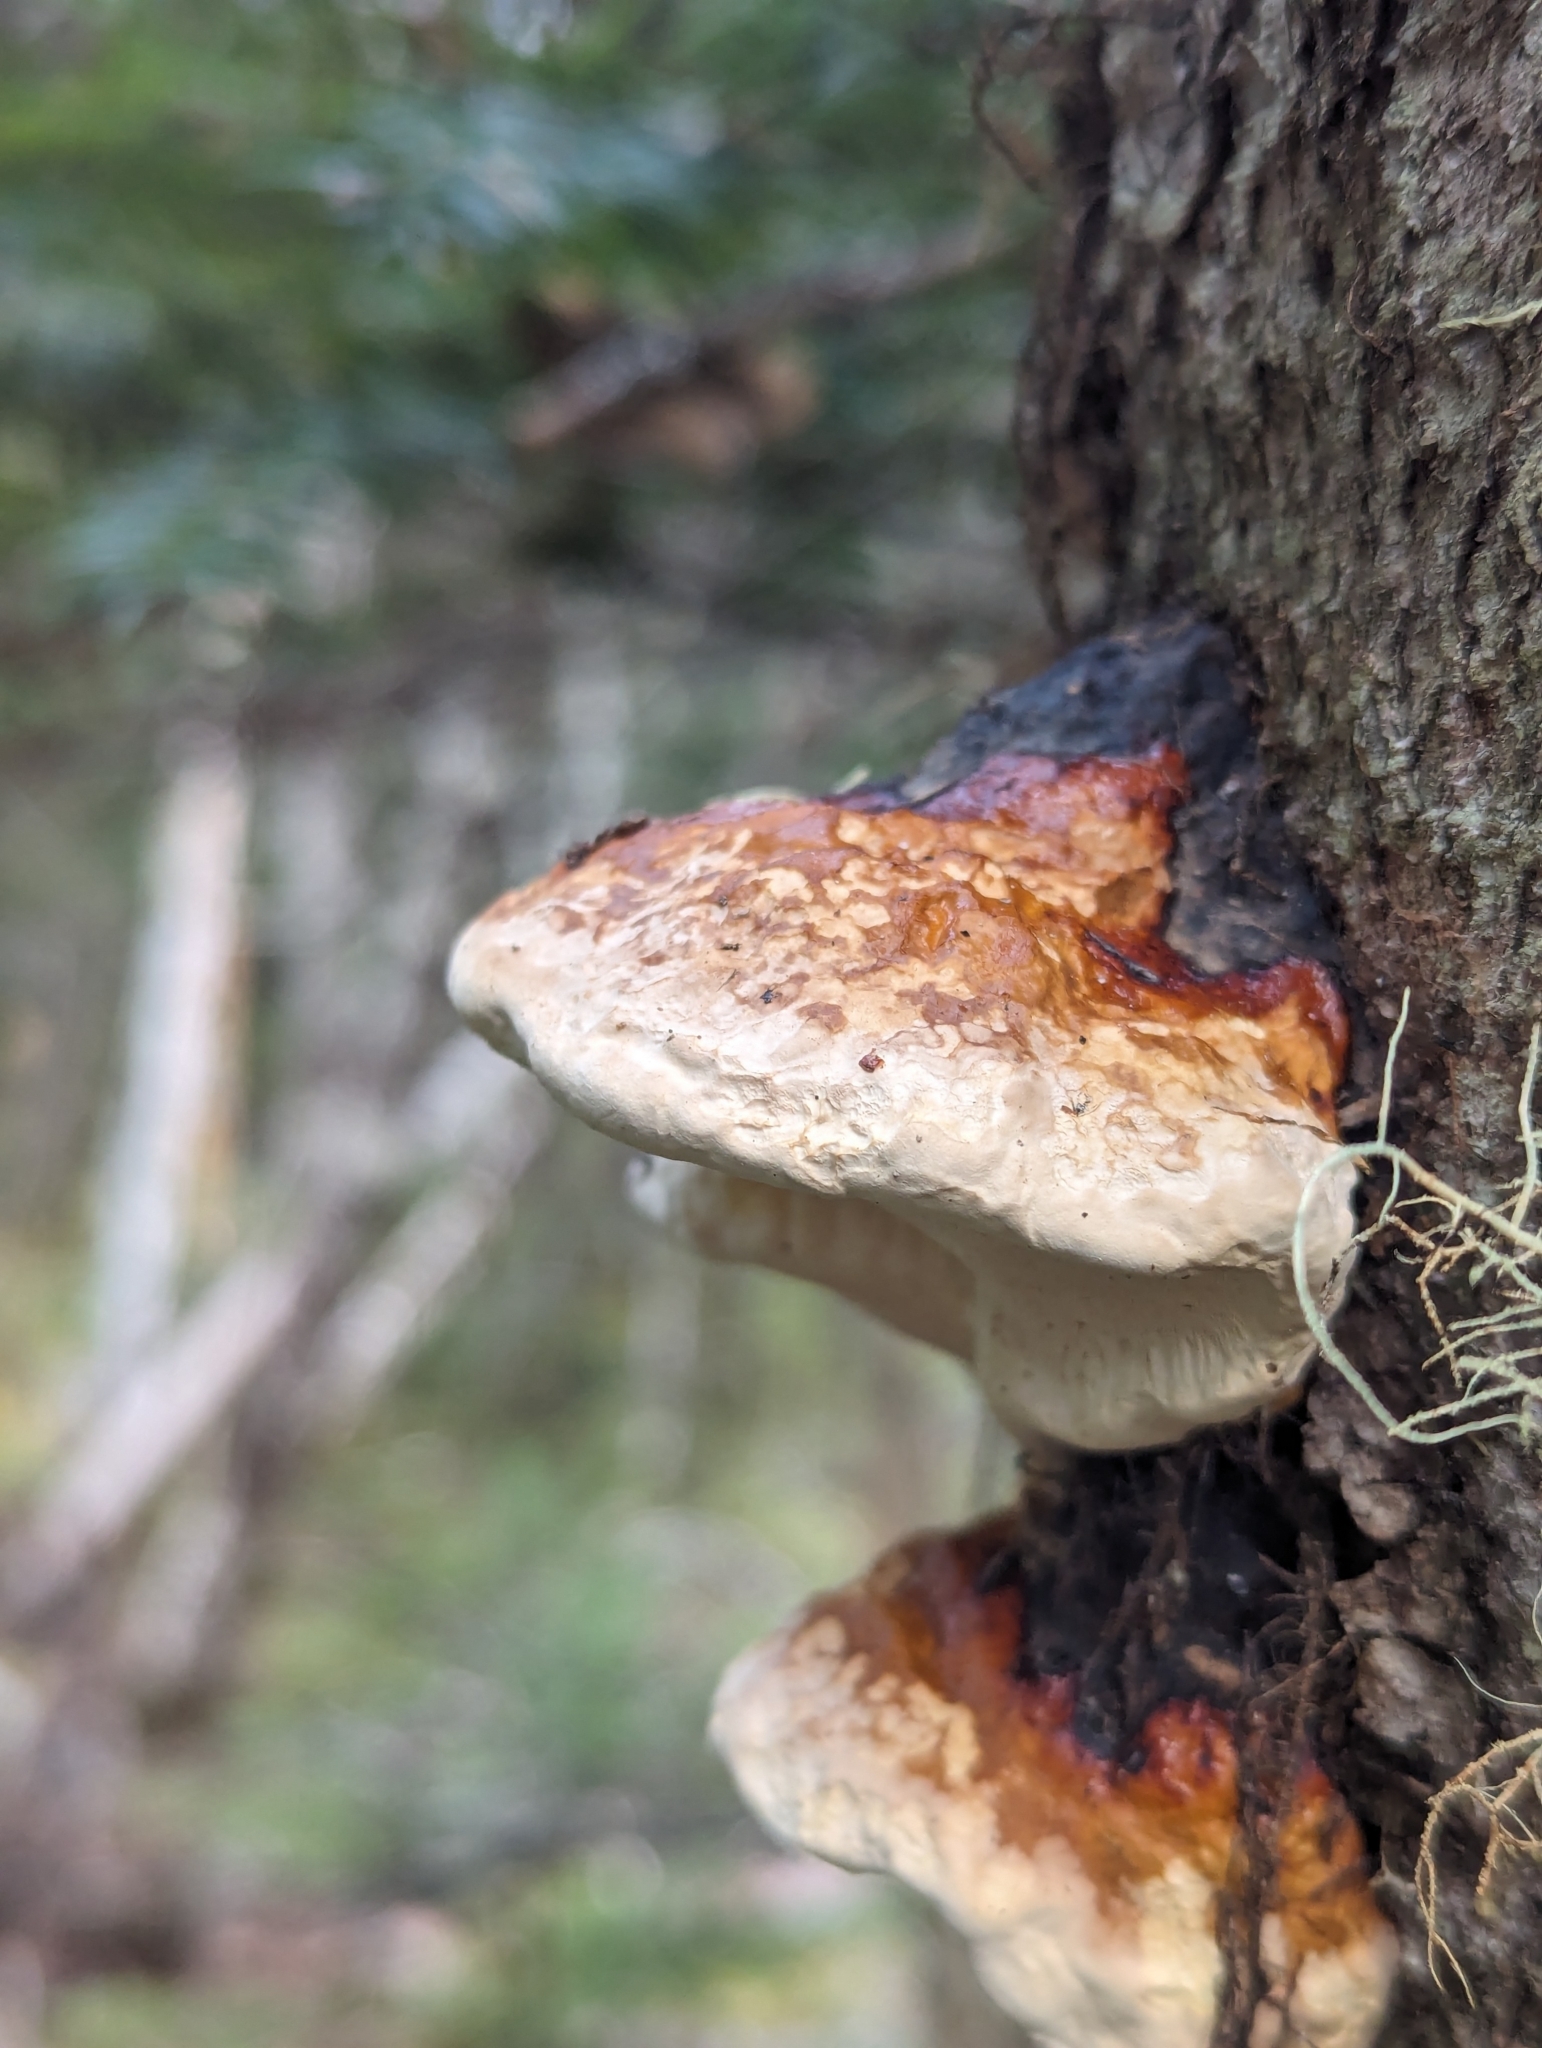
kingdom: Fungi
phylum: Basidiomycota
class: Agaricomycetes
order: Polyporales
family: Fomitopsidaceae
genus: Fomitopsis
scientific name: Fomitopsis mounceae
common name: Northern red belt
